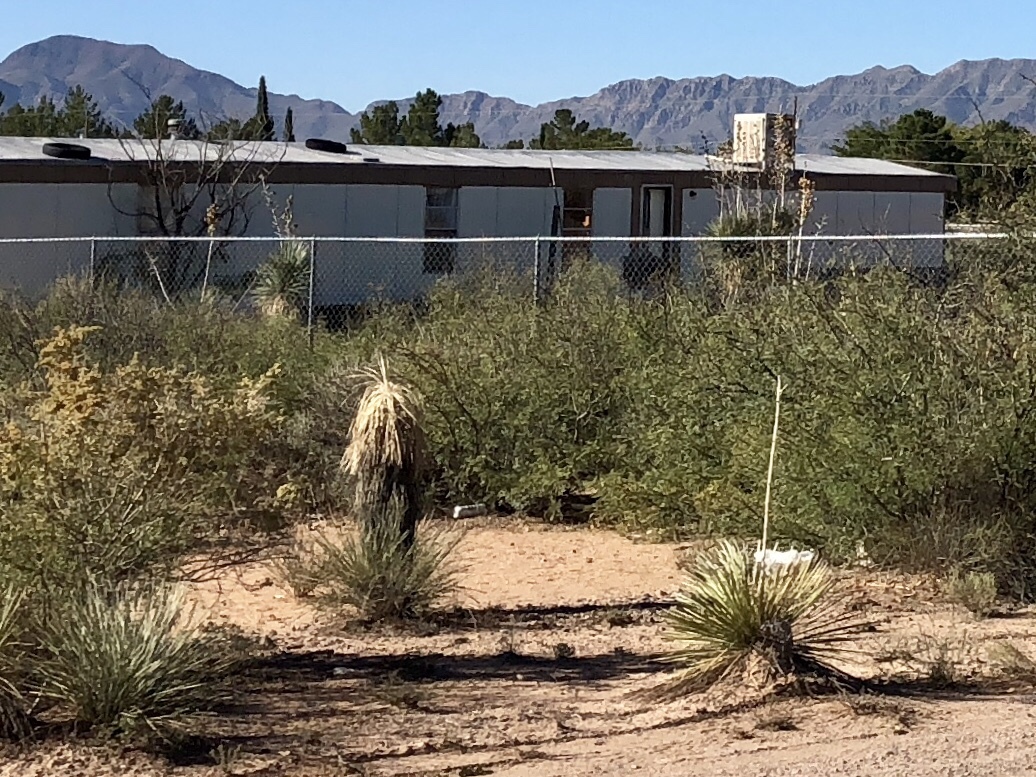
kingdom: Plantae
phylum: Tracheophyta
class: Liliopsida
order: Asparagales
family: Asparagaceae
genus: Yucca
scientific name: Yucca elata
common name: Palmella
